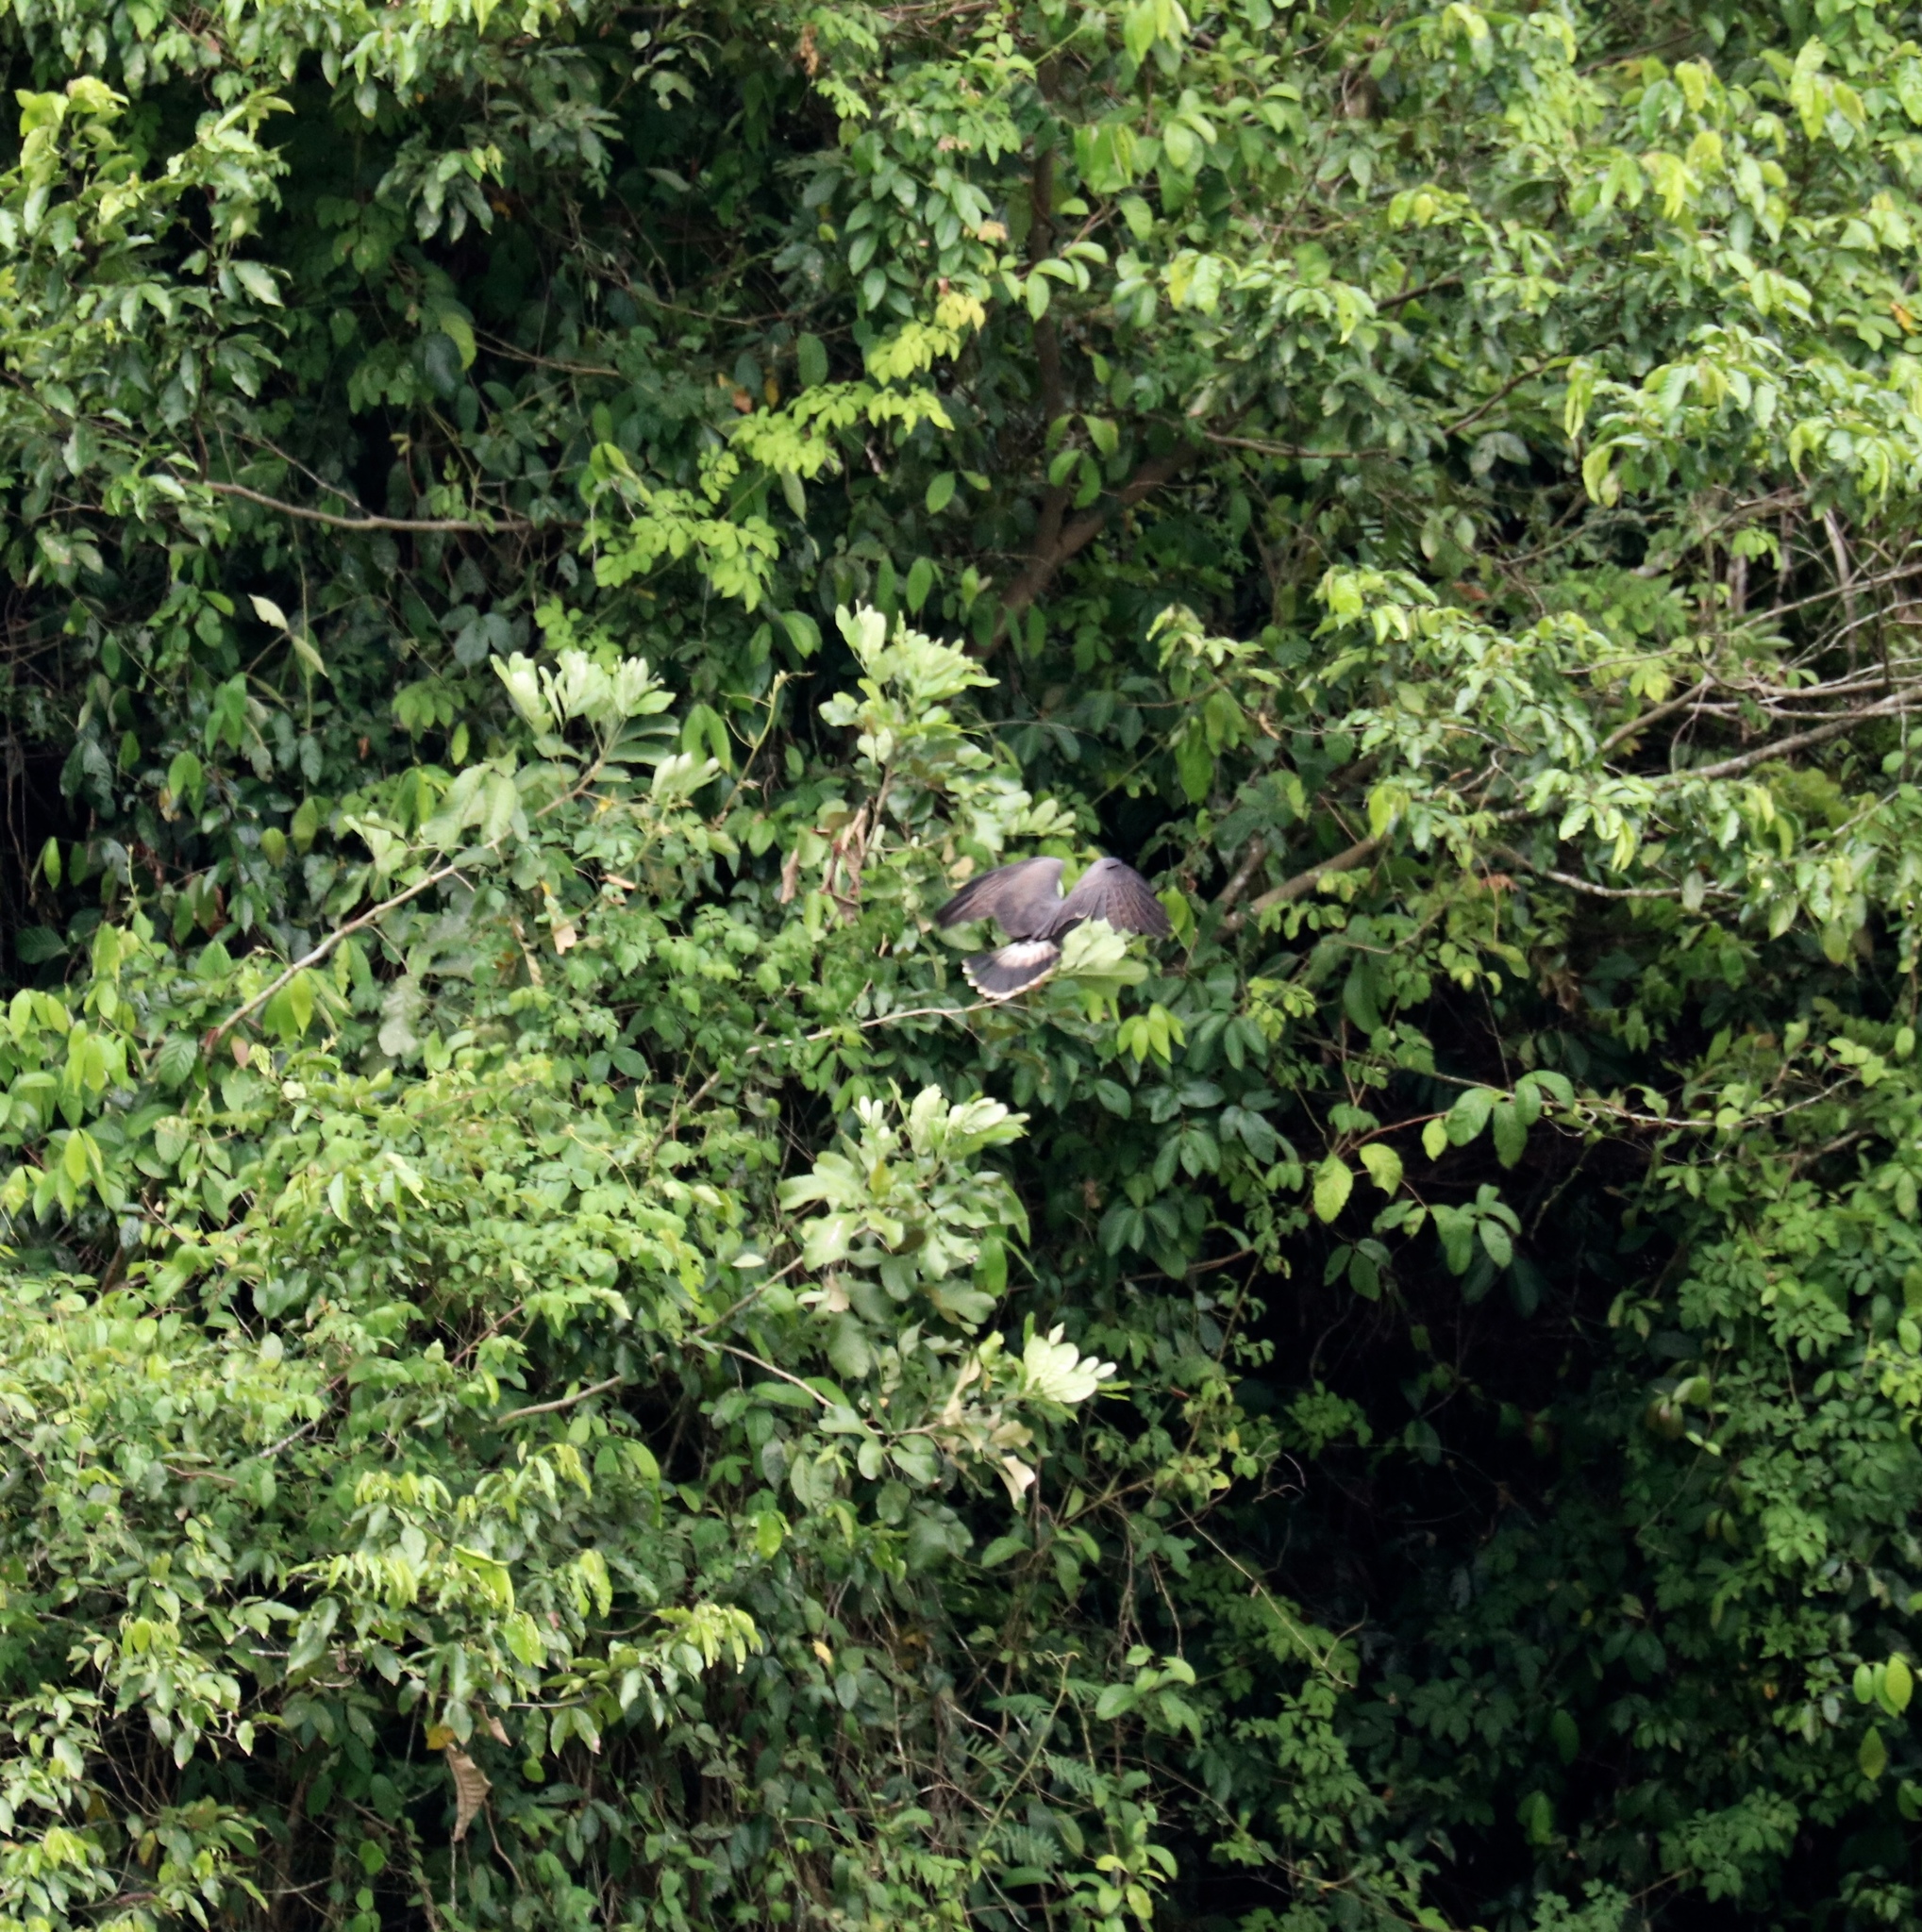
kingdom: Animalia
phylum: Chordata
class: Aves
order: Accipitriformes
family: Accipitridae
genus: Rostrhamus
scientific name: Rostrhamus sociabilis
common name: Snail kite
